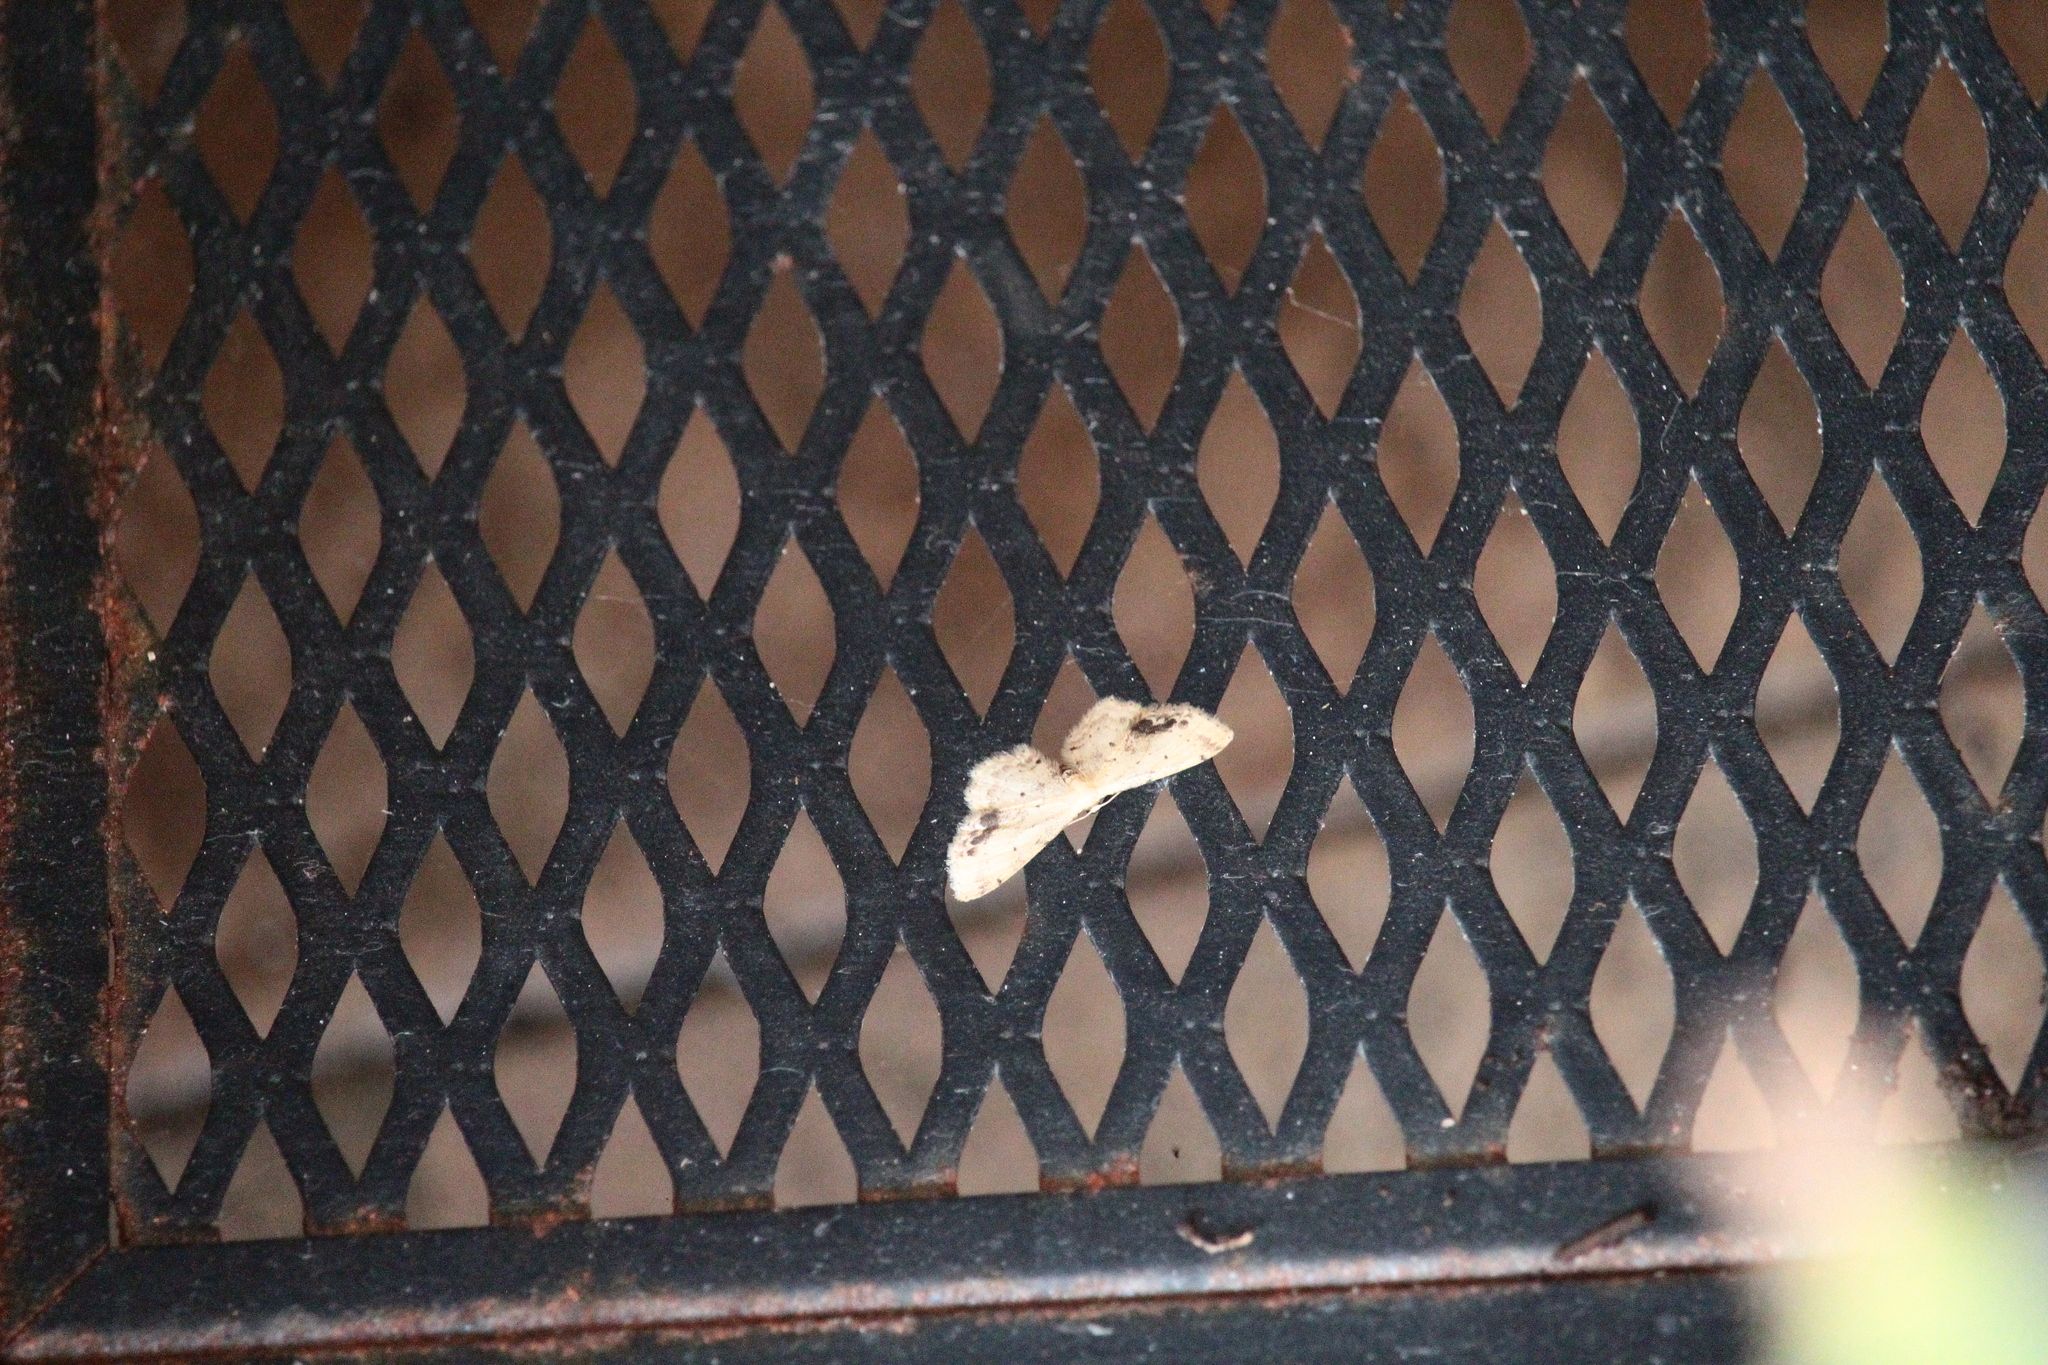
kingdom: Animalia
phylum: Arthropoda
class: Insecta
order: Lepidoptera
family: Geometridae
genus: Idaea
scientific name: Idaea dimidiata
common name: Single-dotted wave
